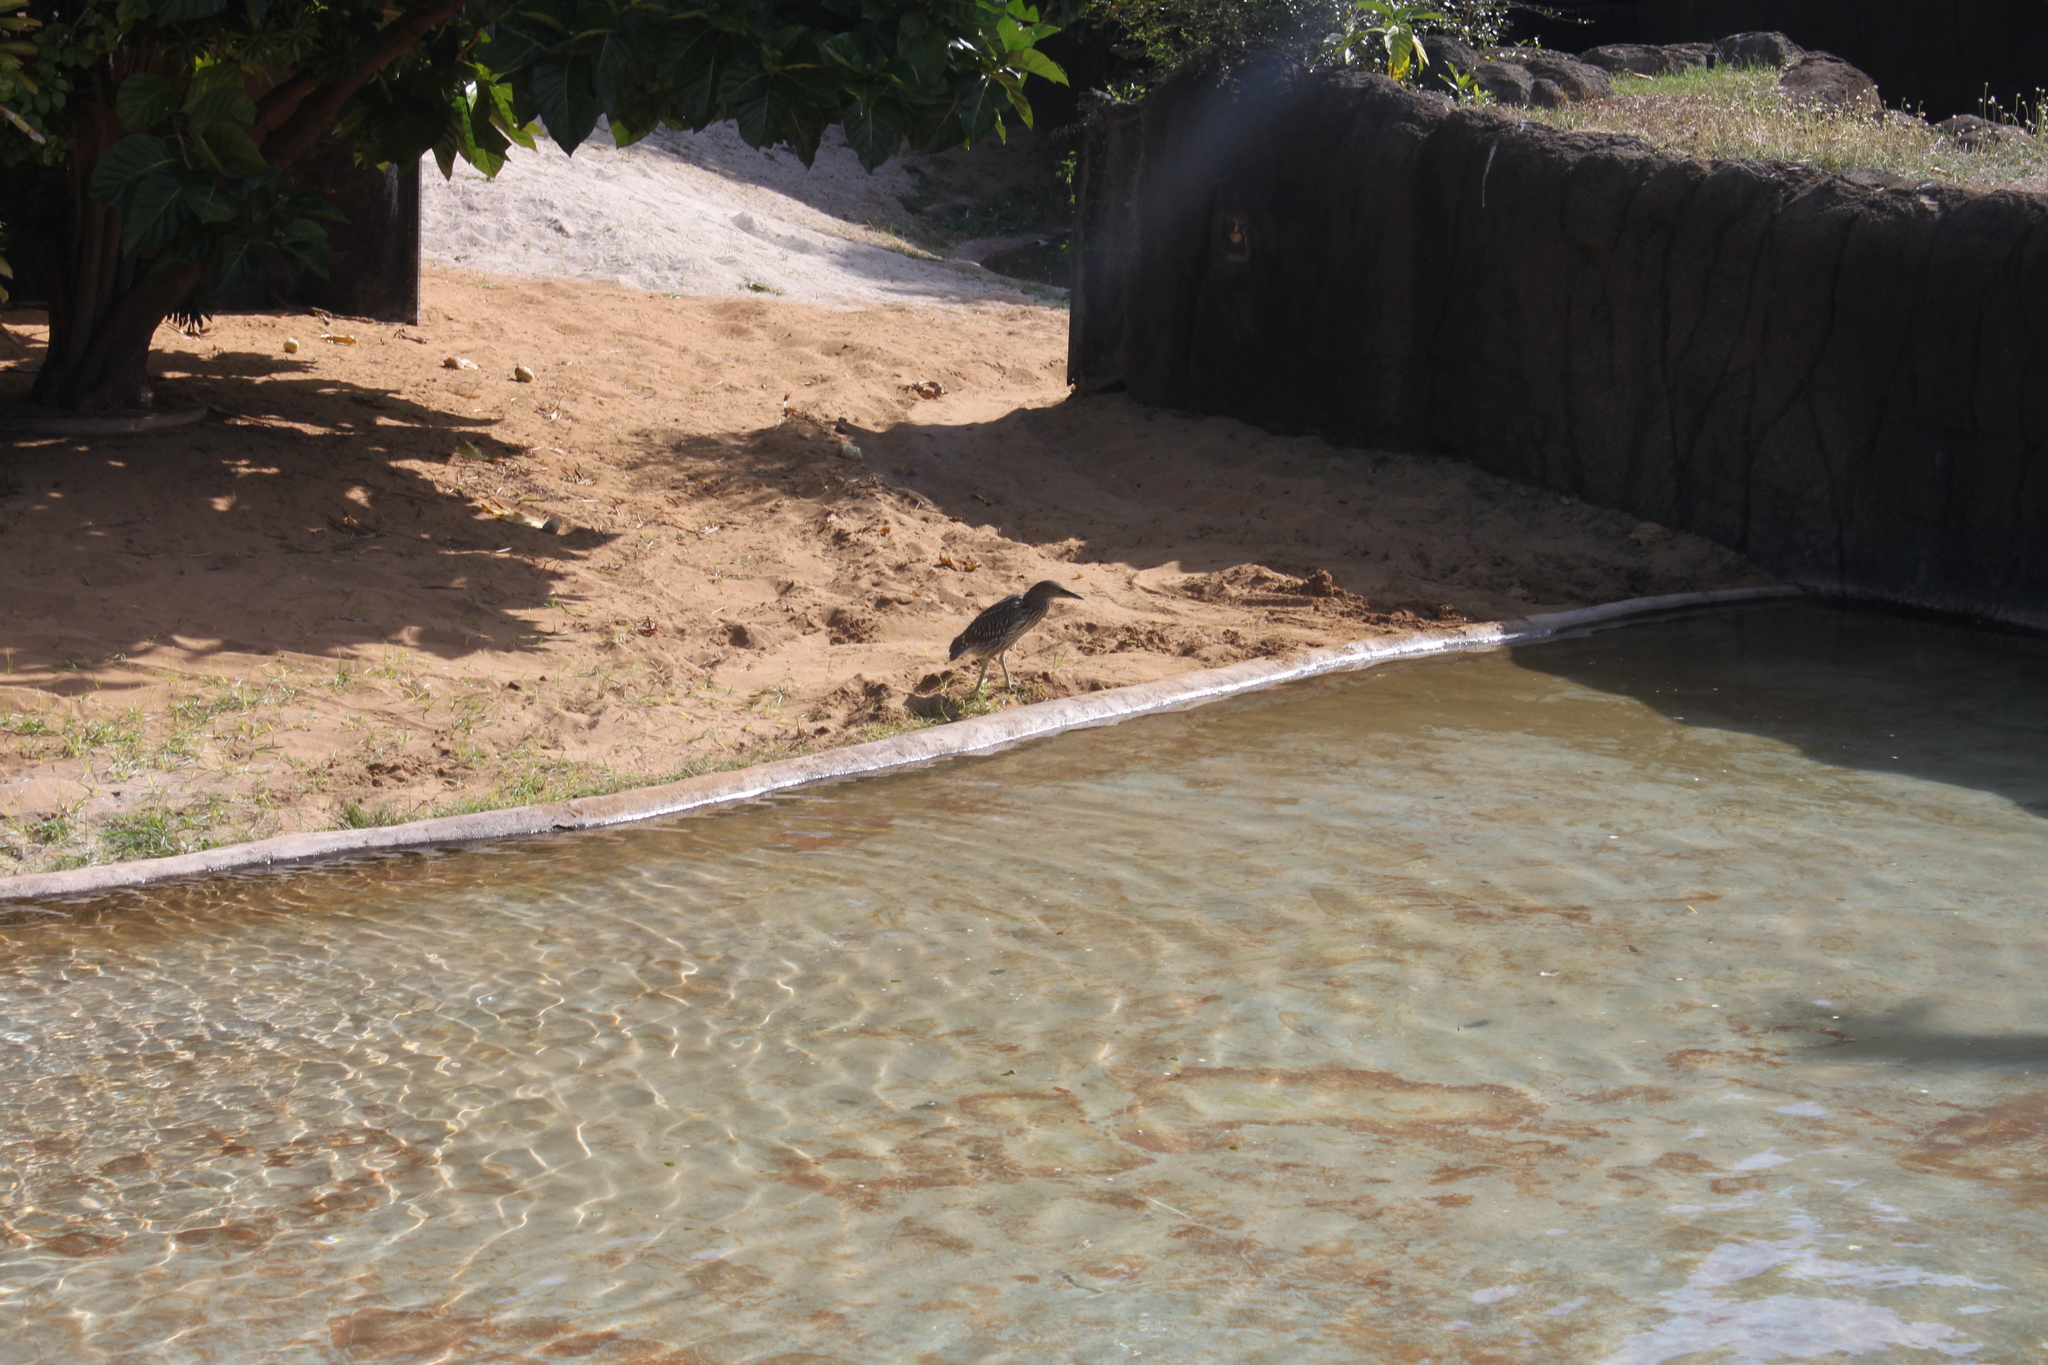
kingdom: Animalia
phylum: Chordata
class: Aves
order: Pelecaniformes
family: Ardeidae
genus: Nycticorax
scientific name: Nycticorax nycticorax
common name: Black-crowned night heron
